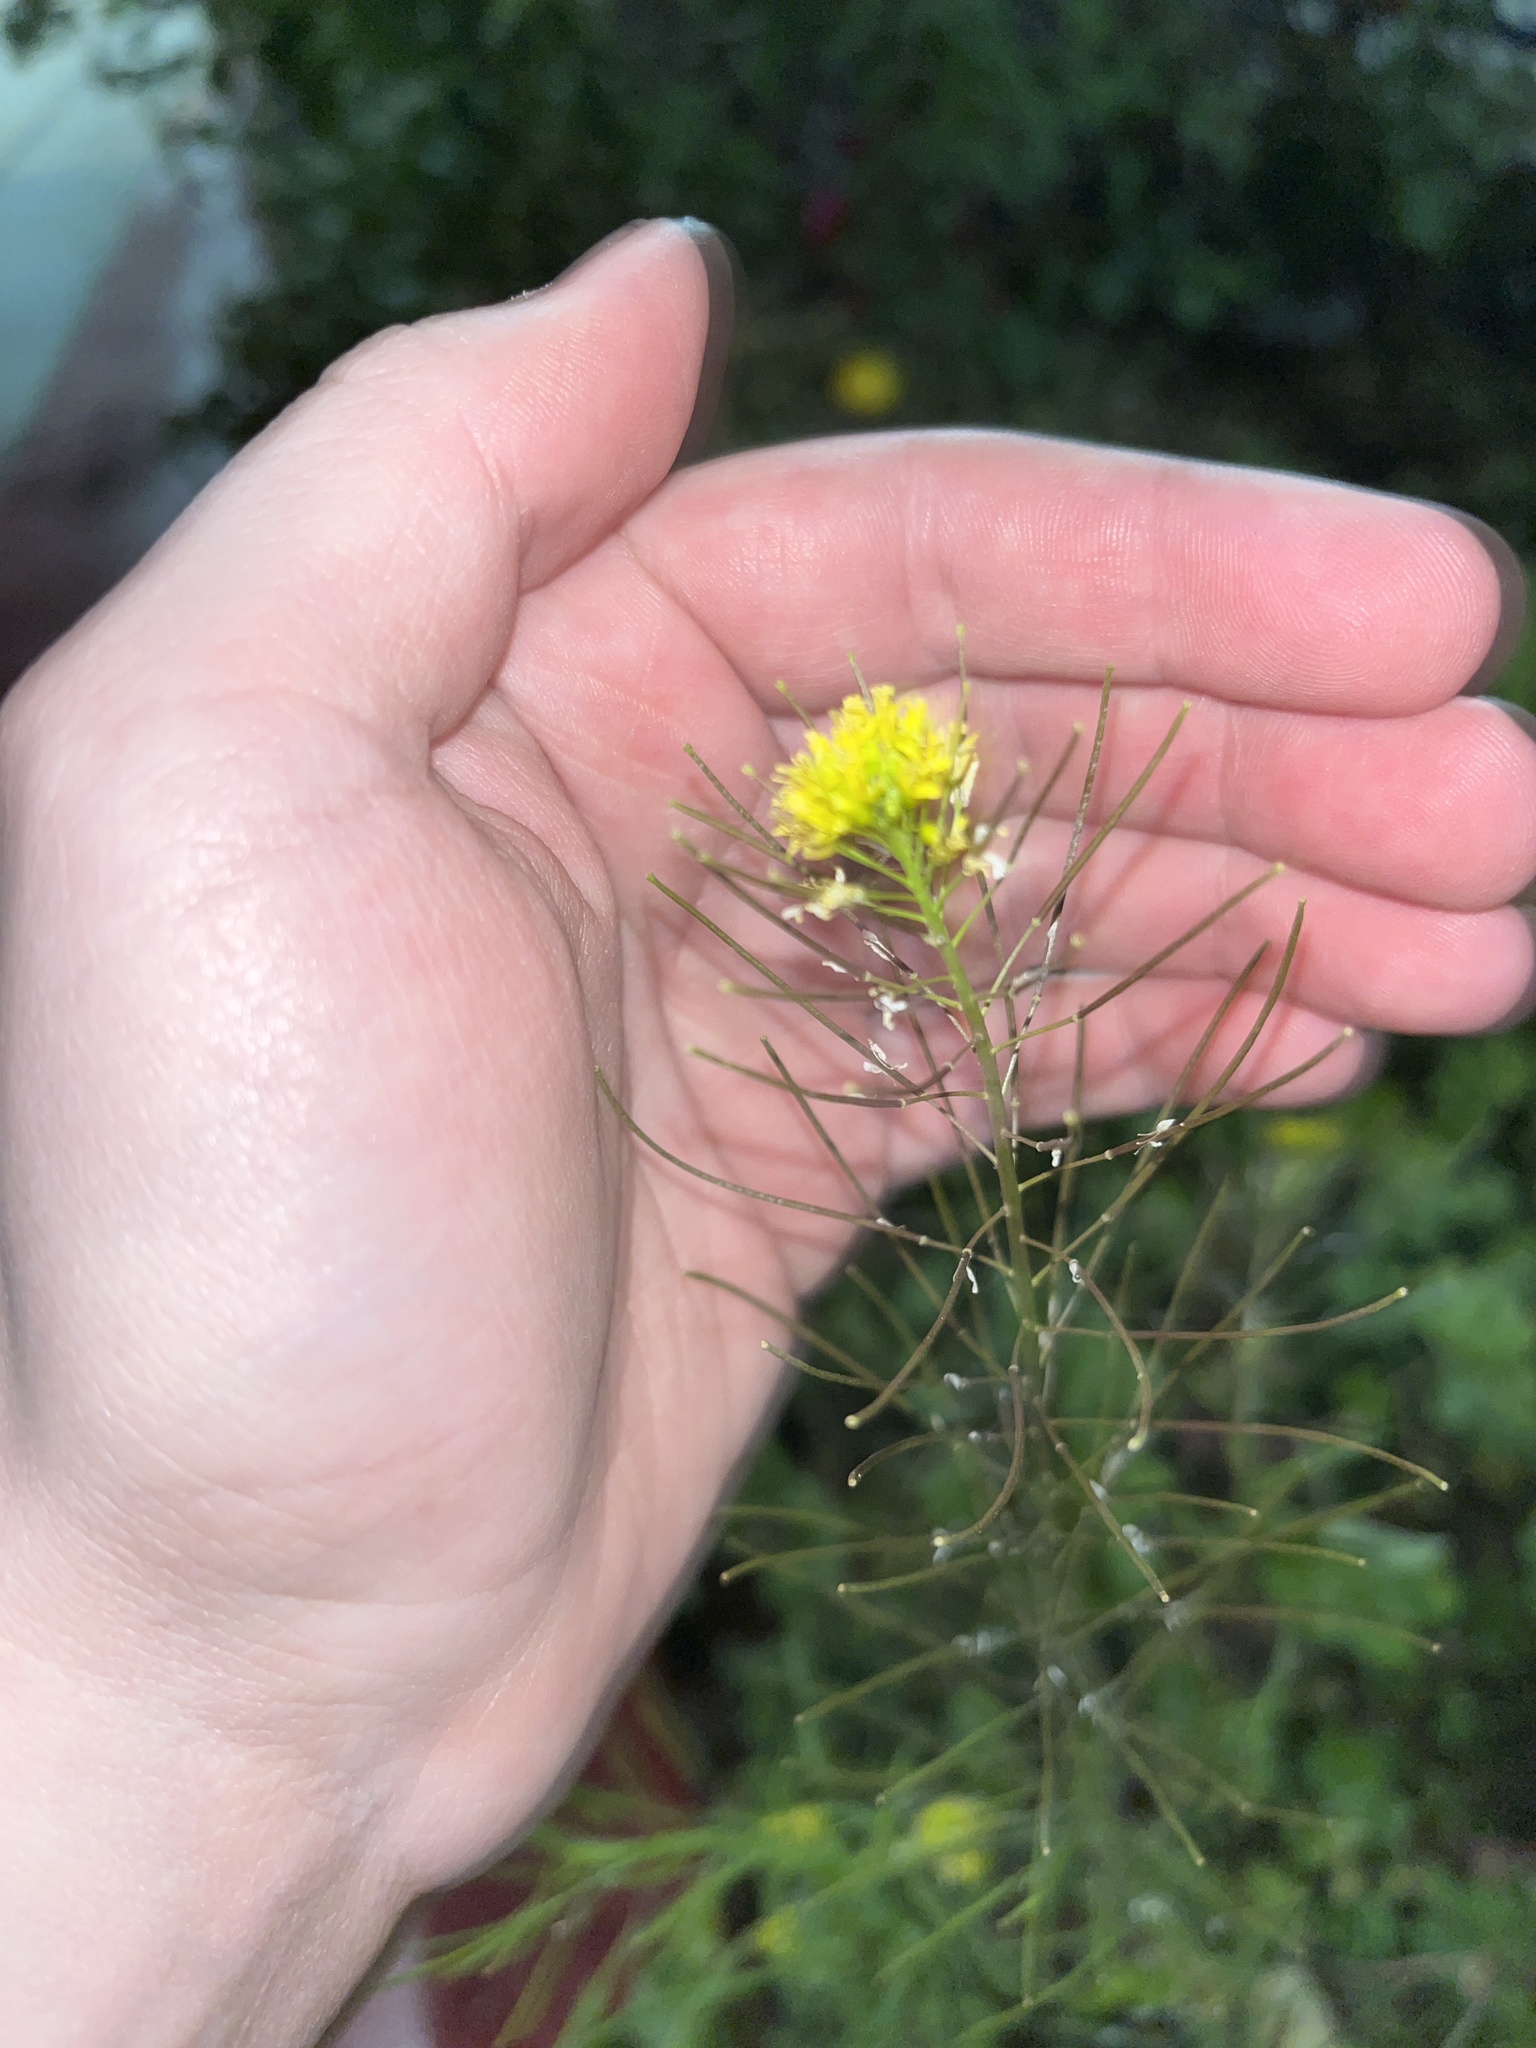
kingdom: Plantae
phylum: Tracheophyta
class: Magnoliopsida
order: Brassicales
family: Brassicaceae
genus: Sisymbrium
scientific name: Sisymbrium irio
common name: London rocket
